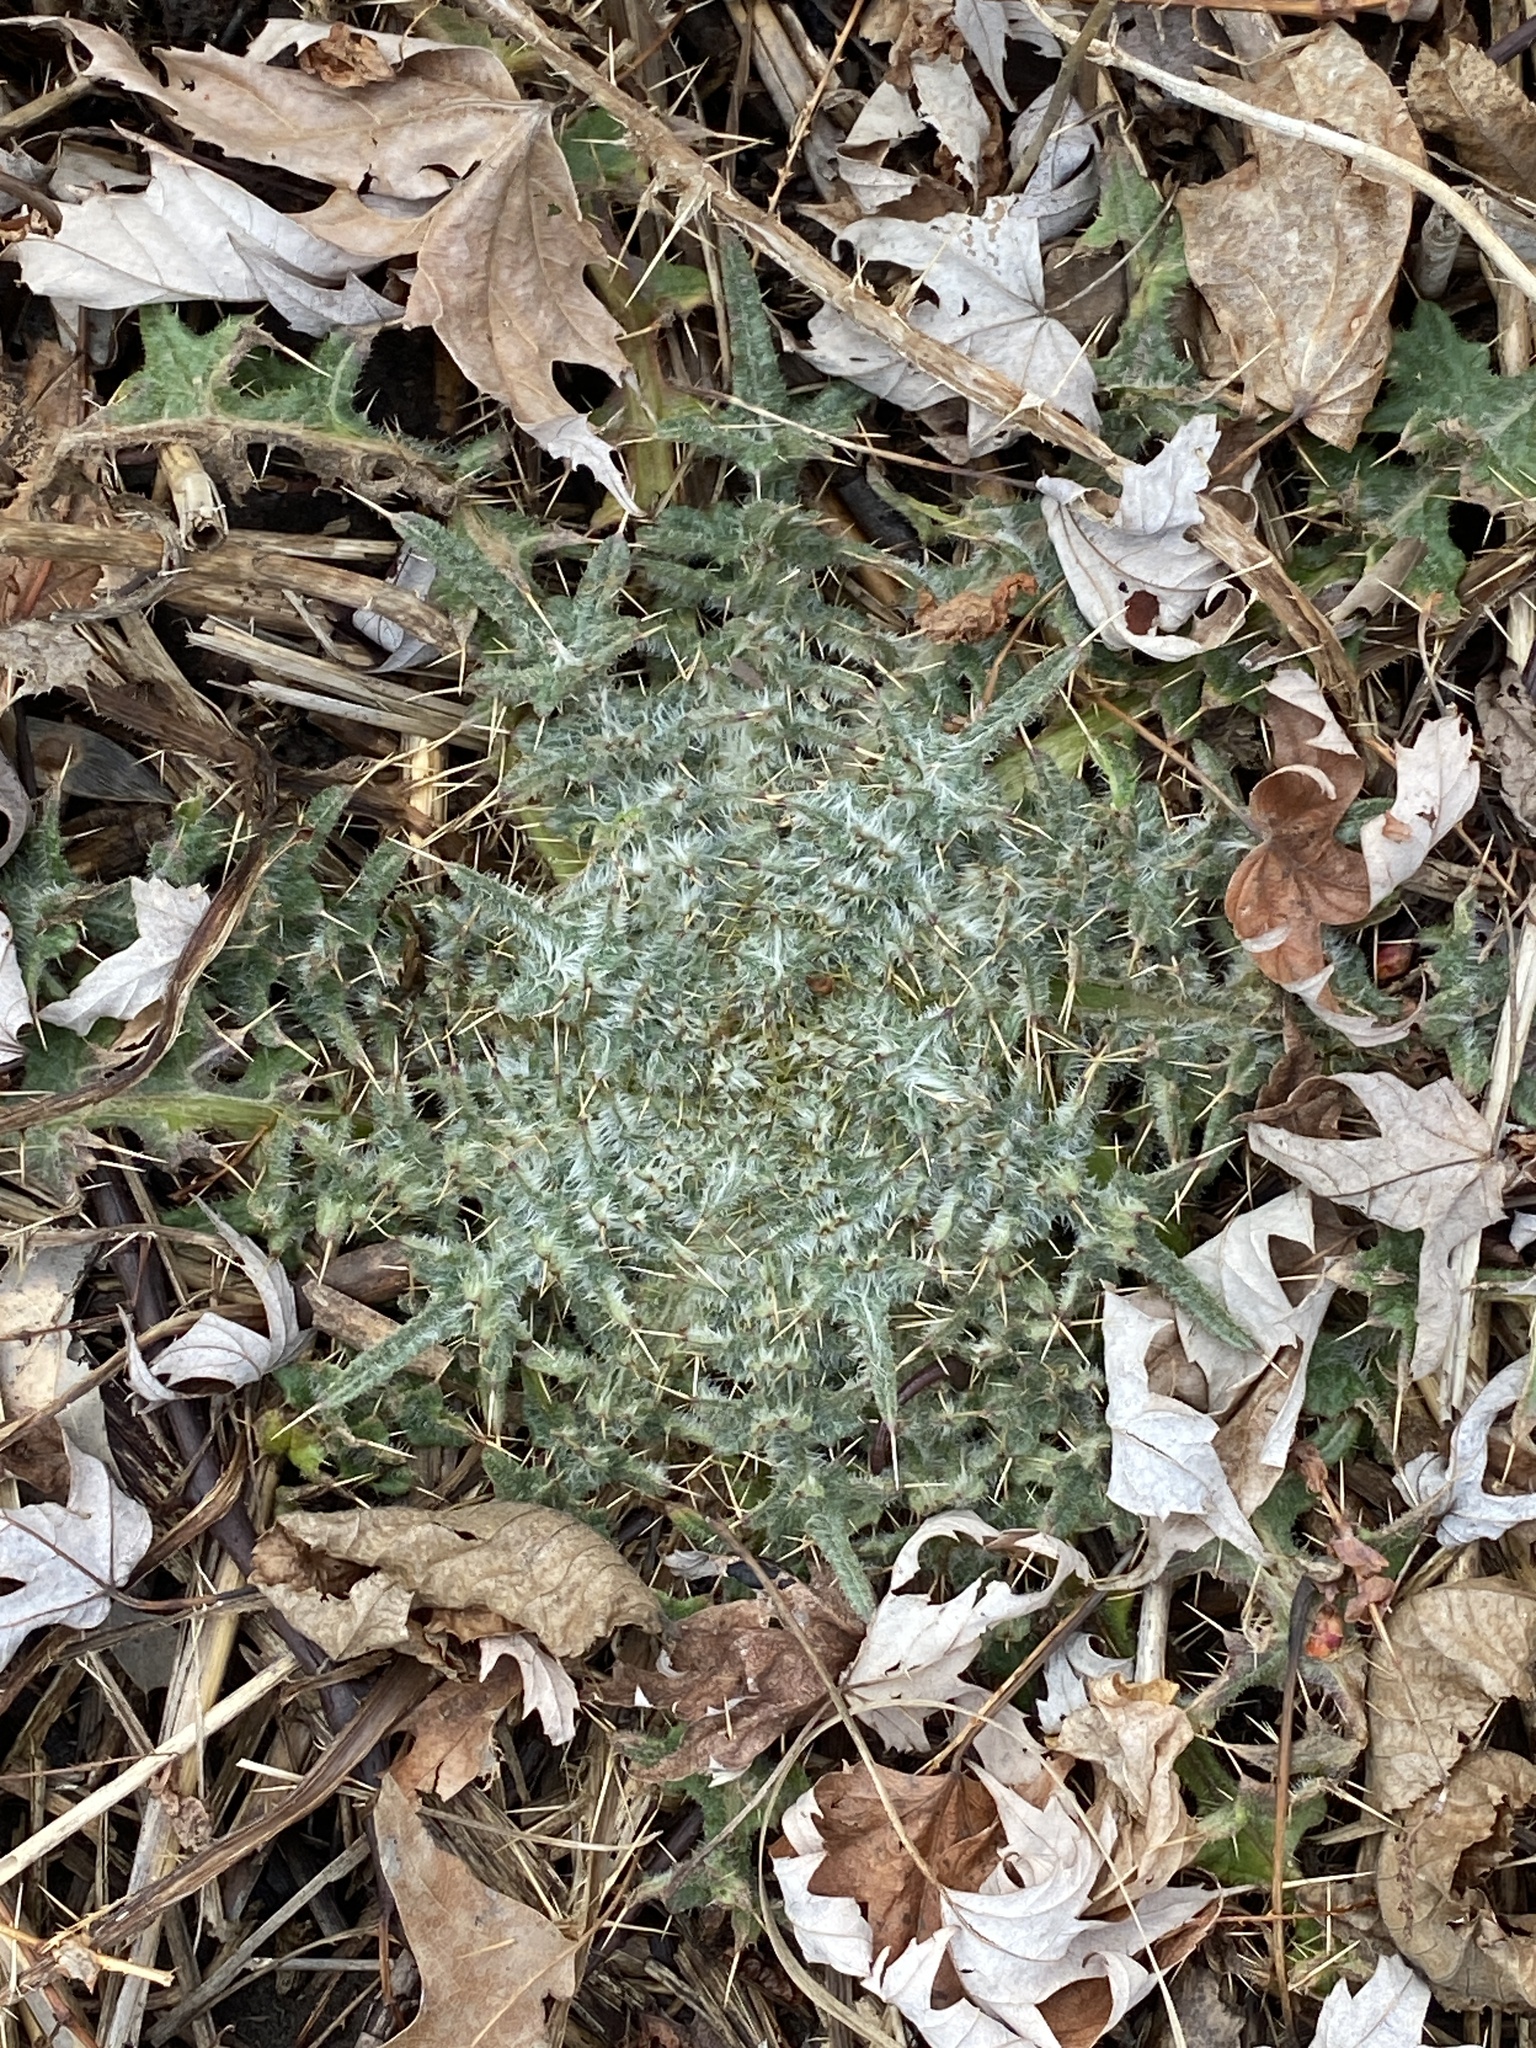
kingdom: Plantae
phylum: Tracheophyta
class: Magnoliopsida
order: Asterales
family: Asteraceae
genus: Cirsium
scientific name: Cirsium vulgare
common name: Bull thistle
